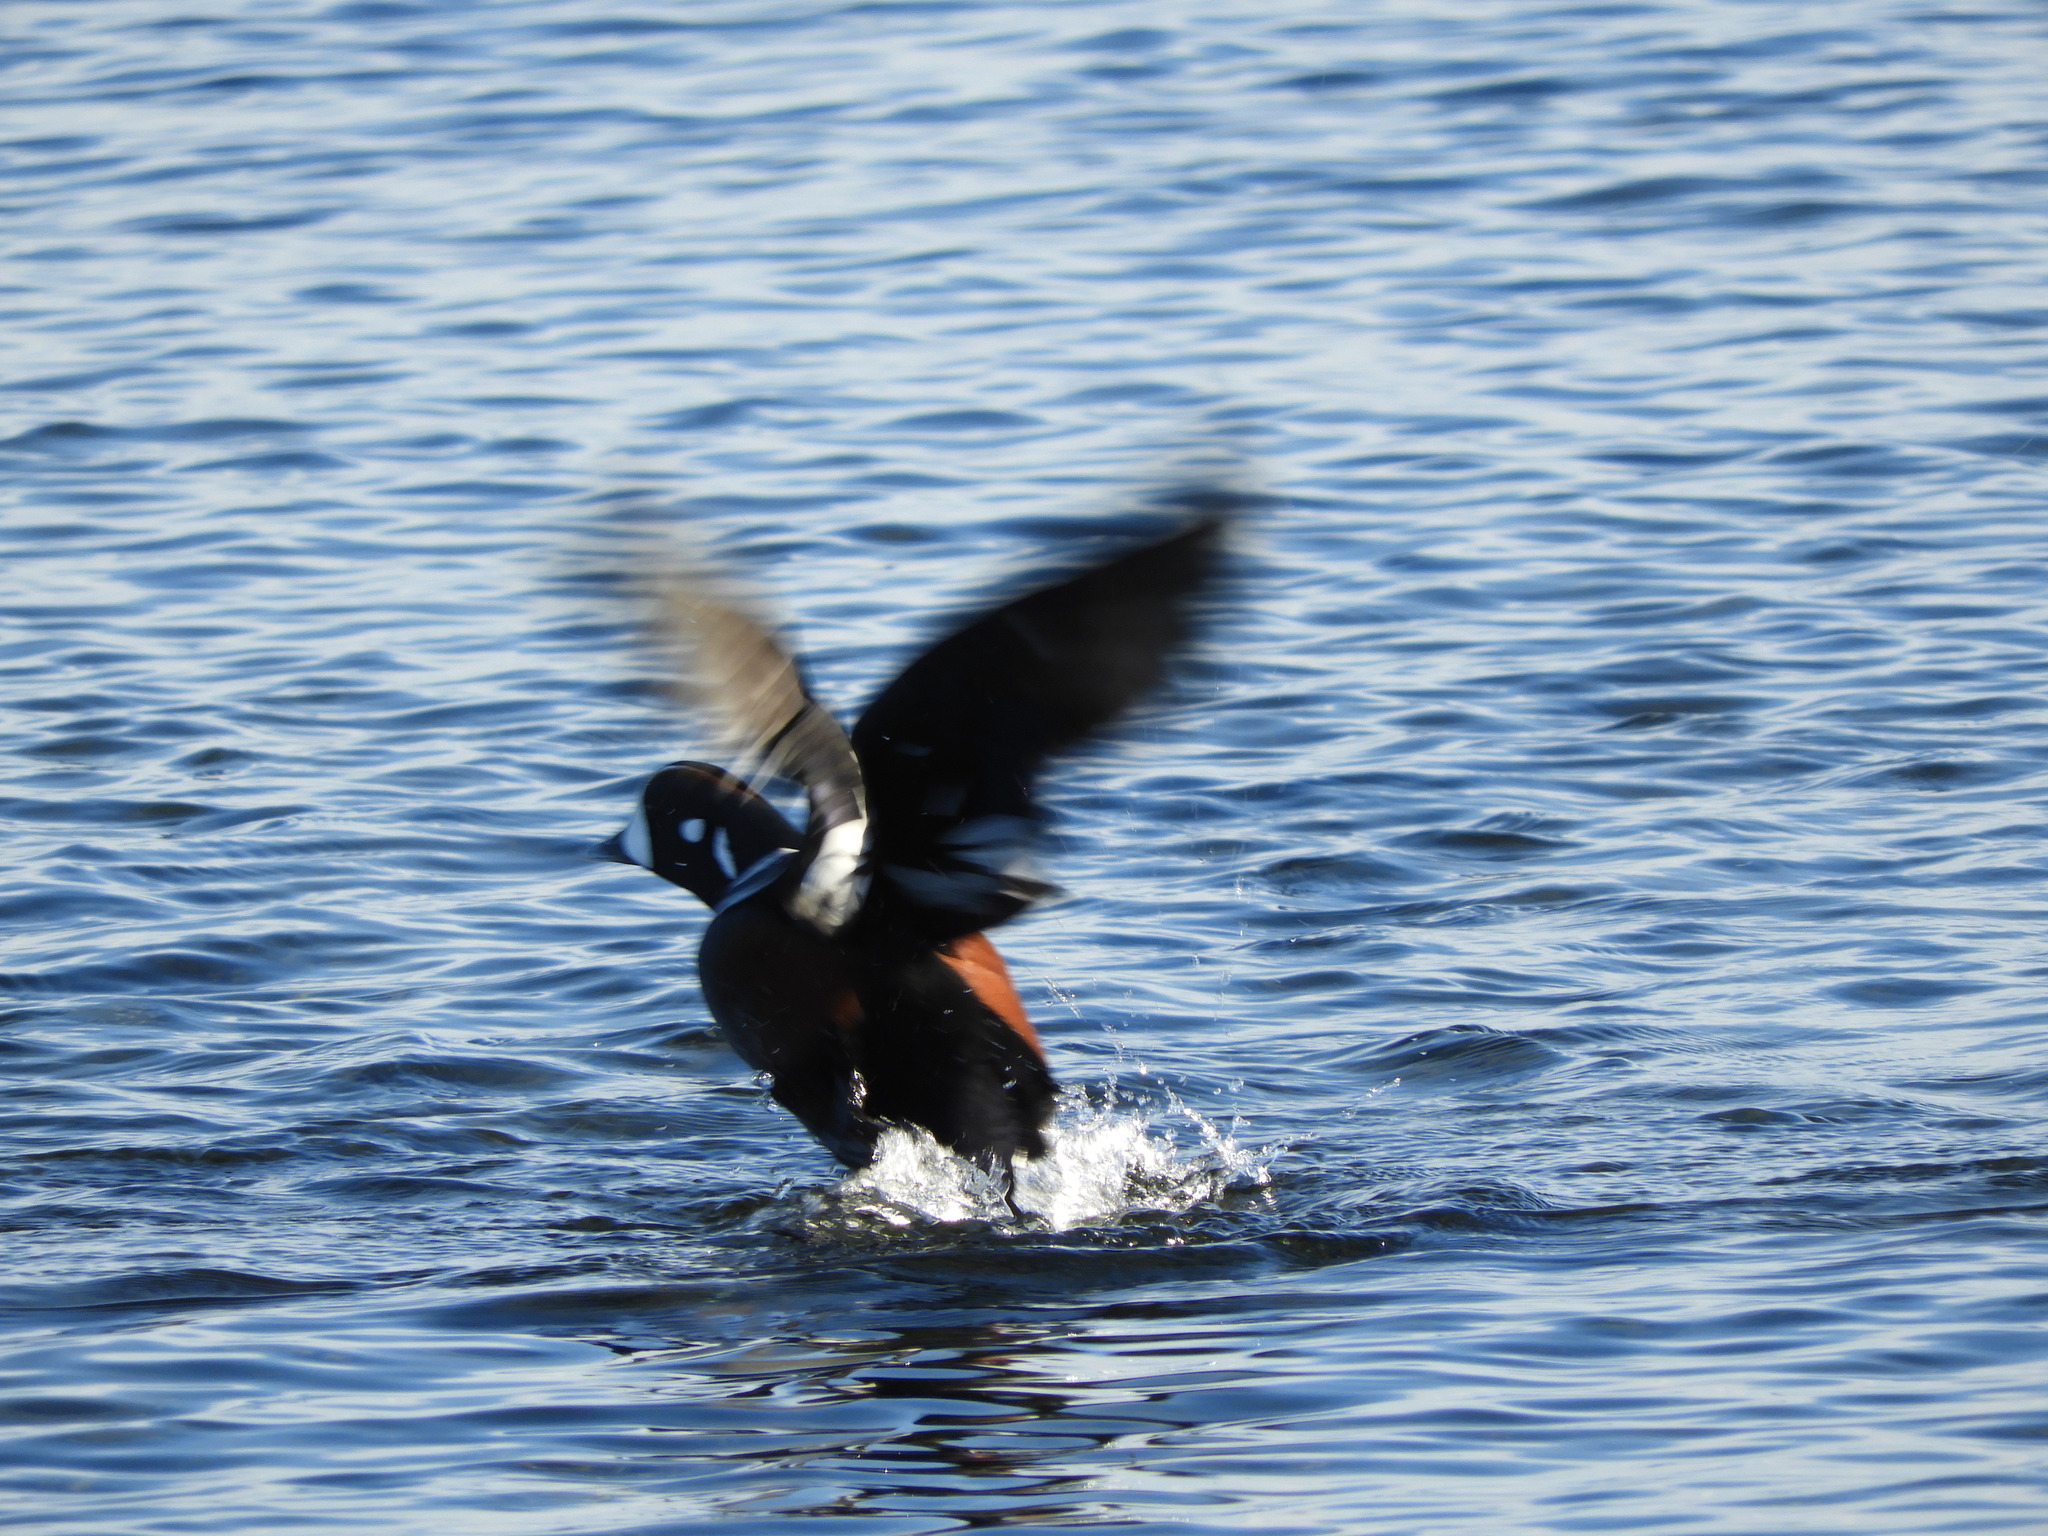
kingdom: Animalia
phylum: Chordata
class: Aves
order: Anseriformes
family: Anatidae
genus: Histrionicus
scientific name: Histrionicus histrionicus
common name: Harlequin duck
